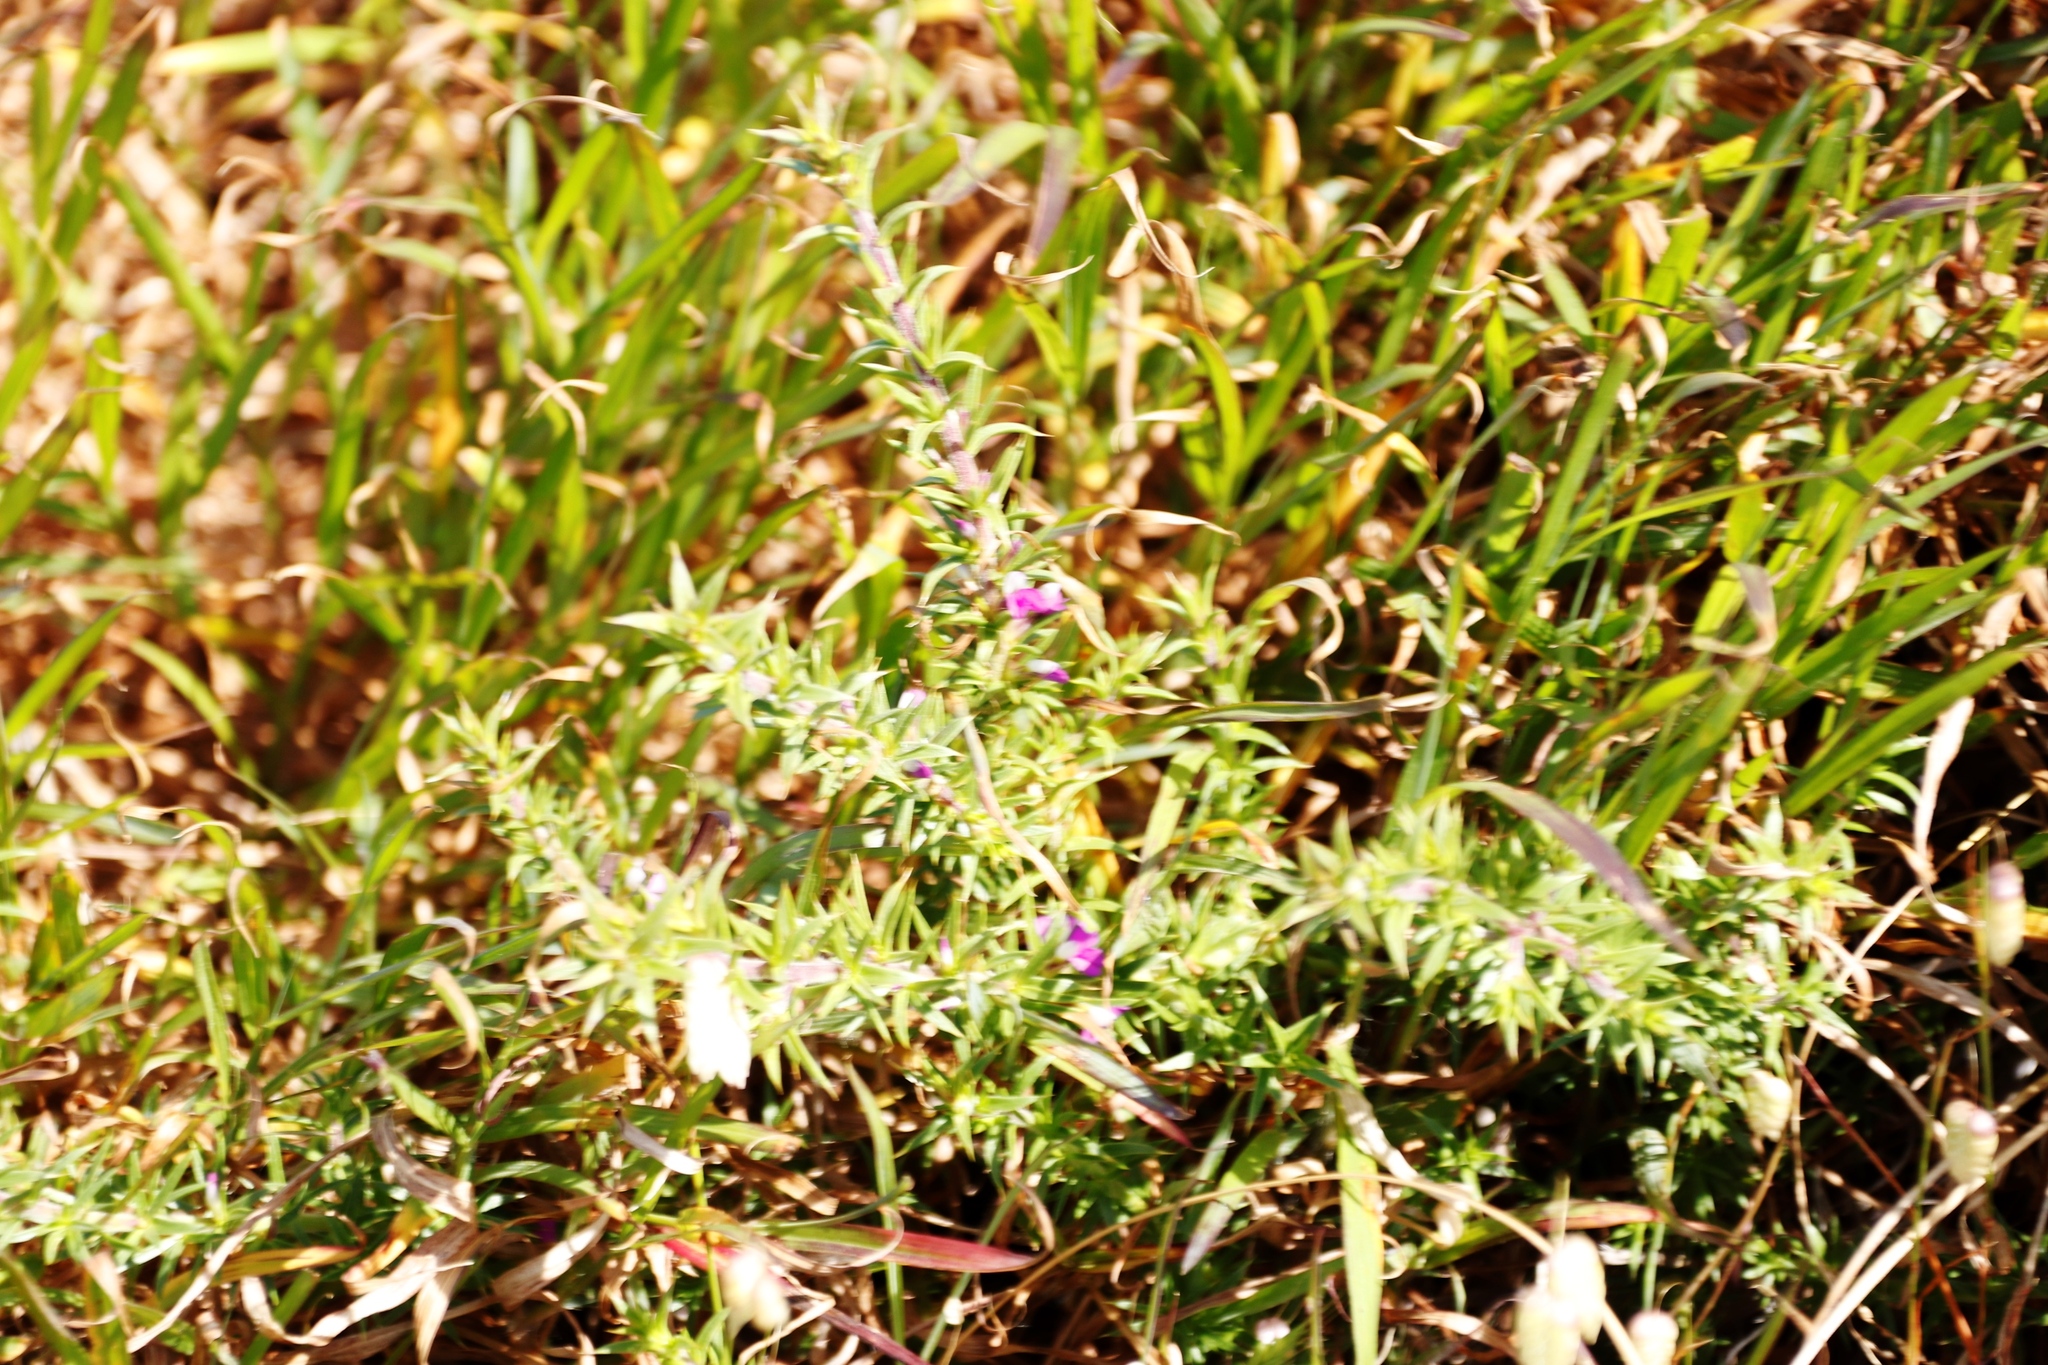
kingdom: Plantae
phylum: Tracheophyta
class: Magnoliopsida
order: Fabales
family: Polygalaceae
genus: Muraltia
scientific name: Muraltia heisteria
